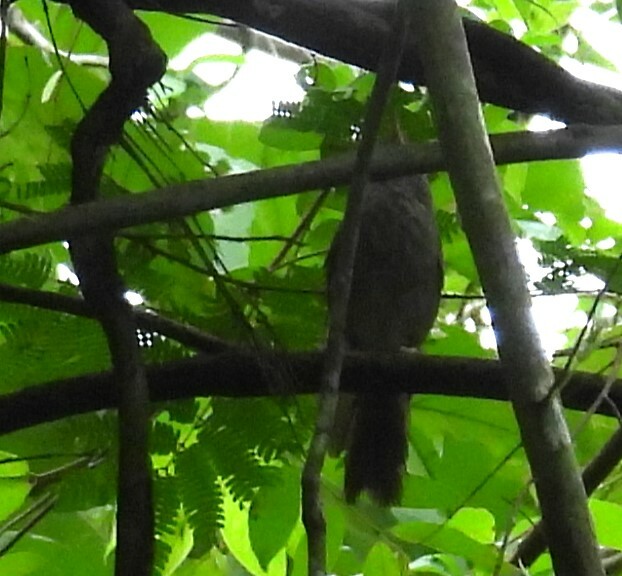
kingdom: Animalia
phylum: Chordata
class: Aves
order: Passeriformes
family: Leiothrichidae
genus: Turdoides
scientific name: Turdoides striata
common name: Jungle babbler
